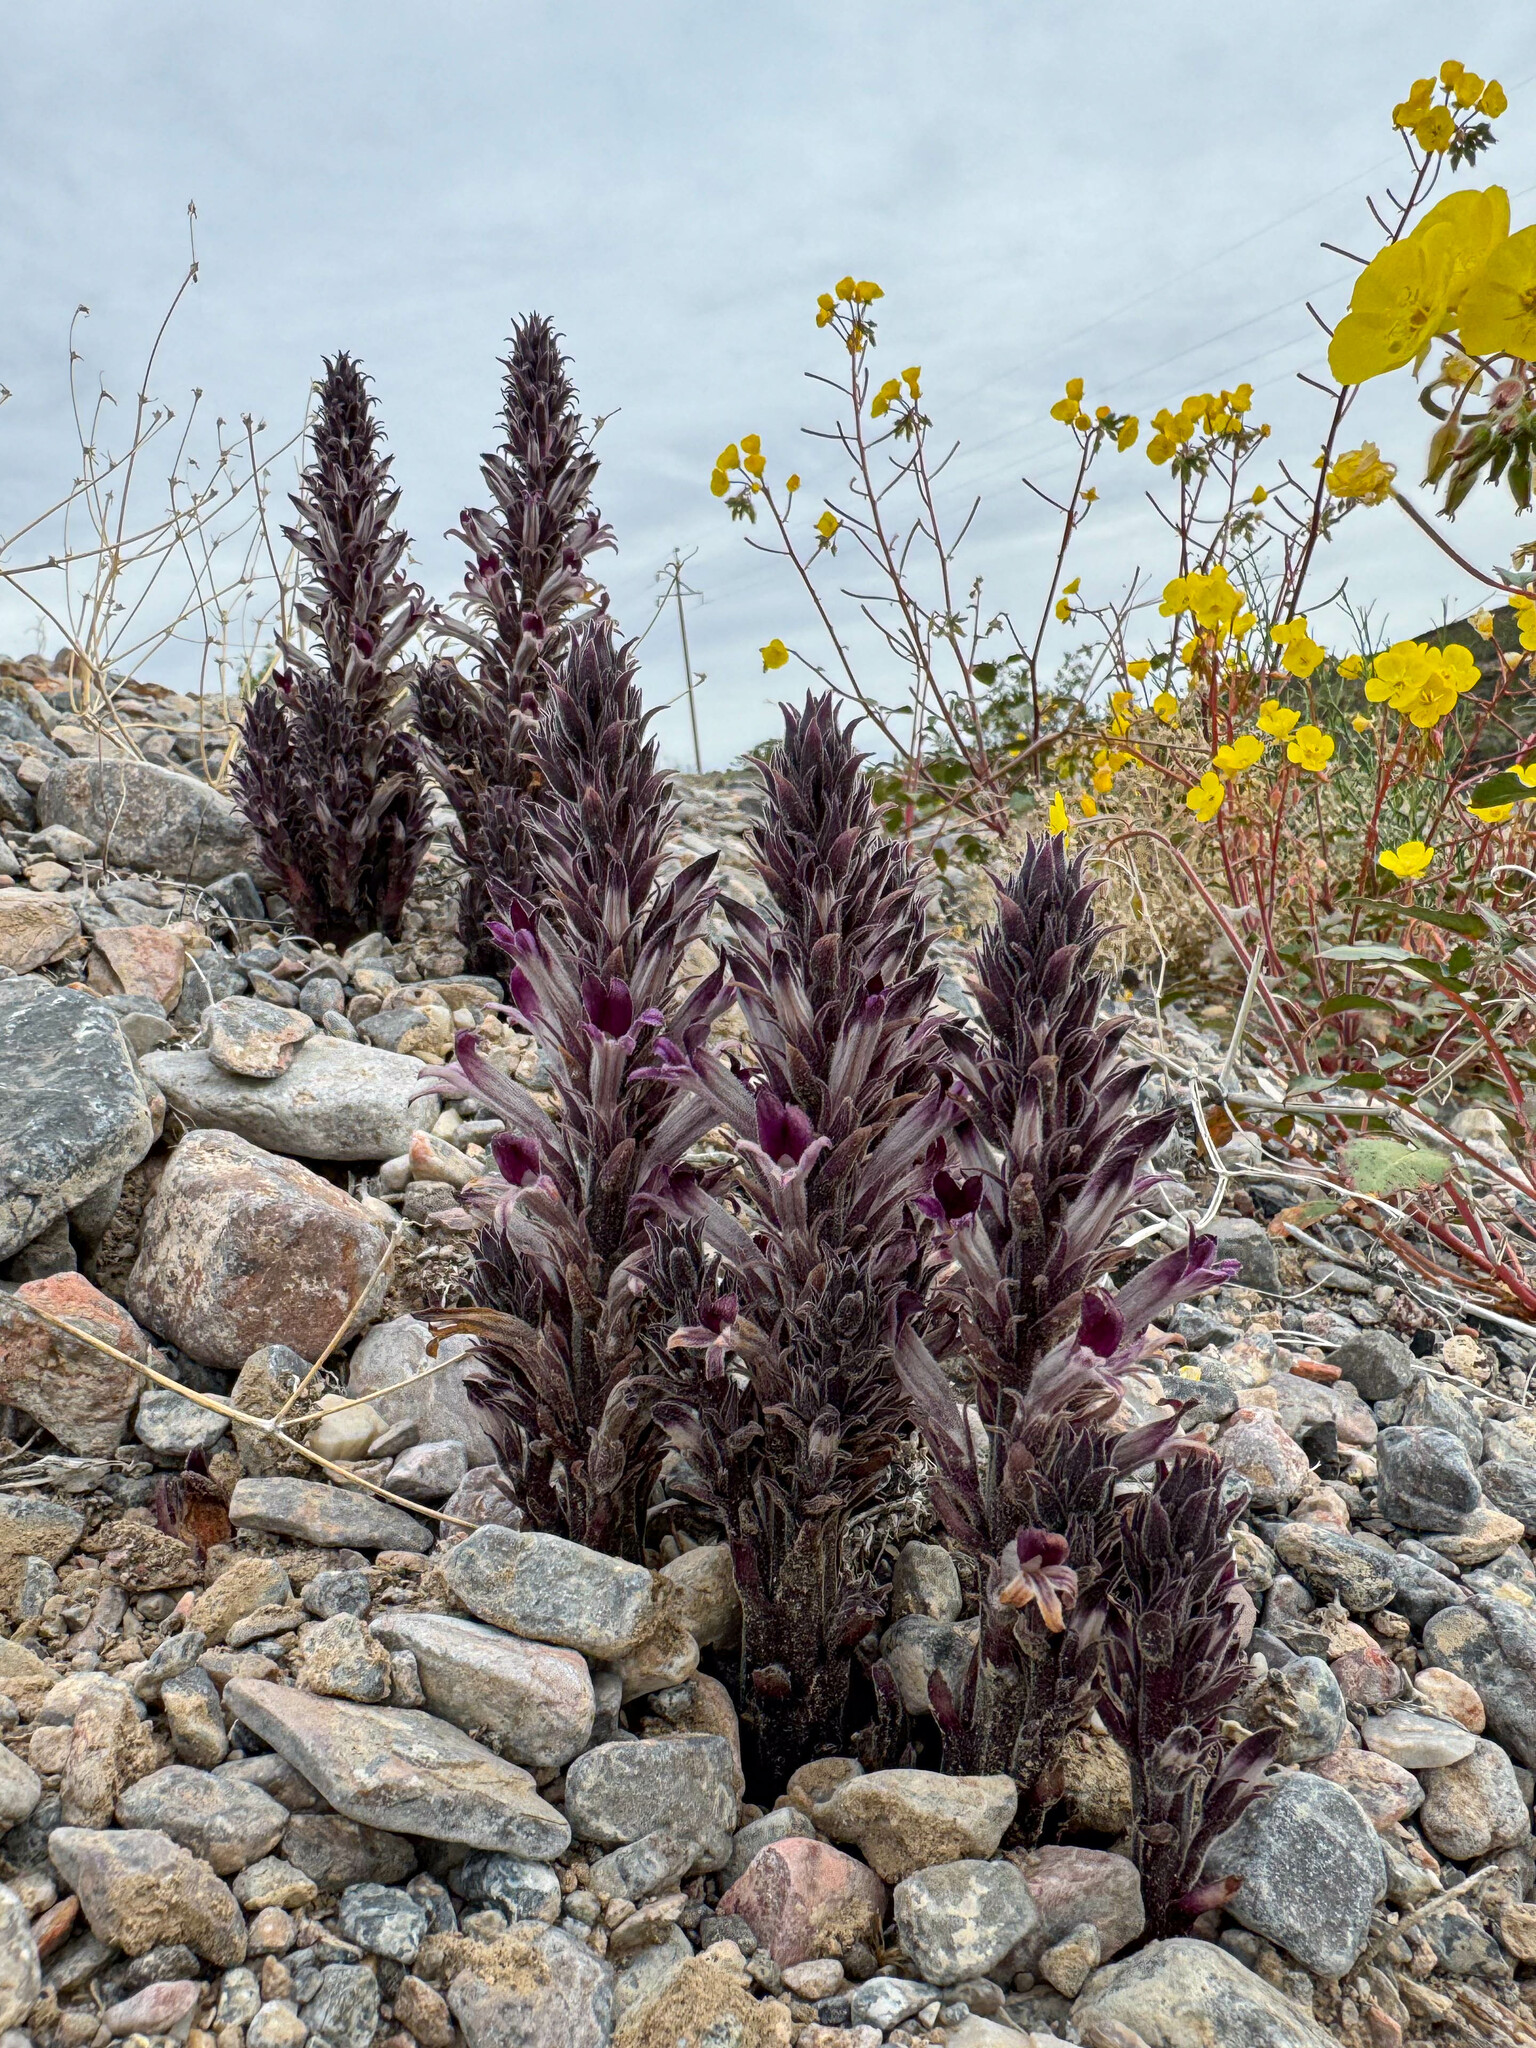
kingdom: Plantae
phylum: Tracheophyta
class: Magnoliopsida
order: Lamiales
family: Orobanchaceae
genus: Aphyllon
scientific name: Aphyllon cooperi
